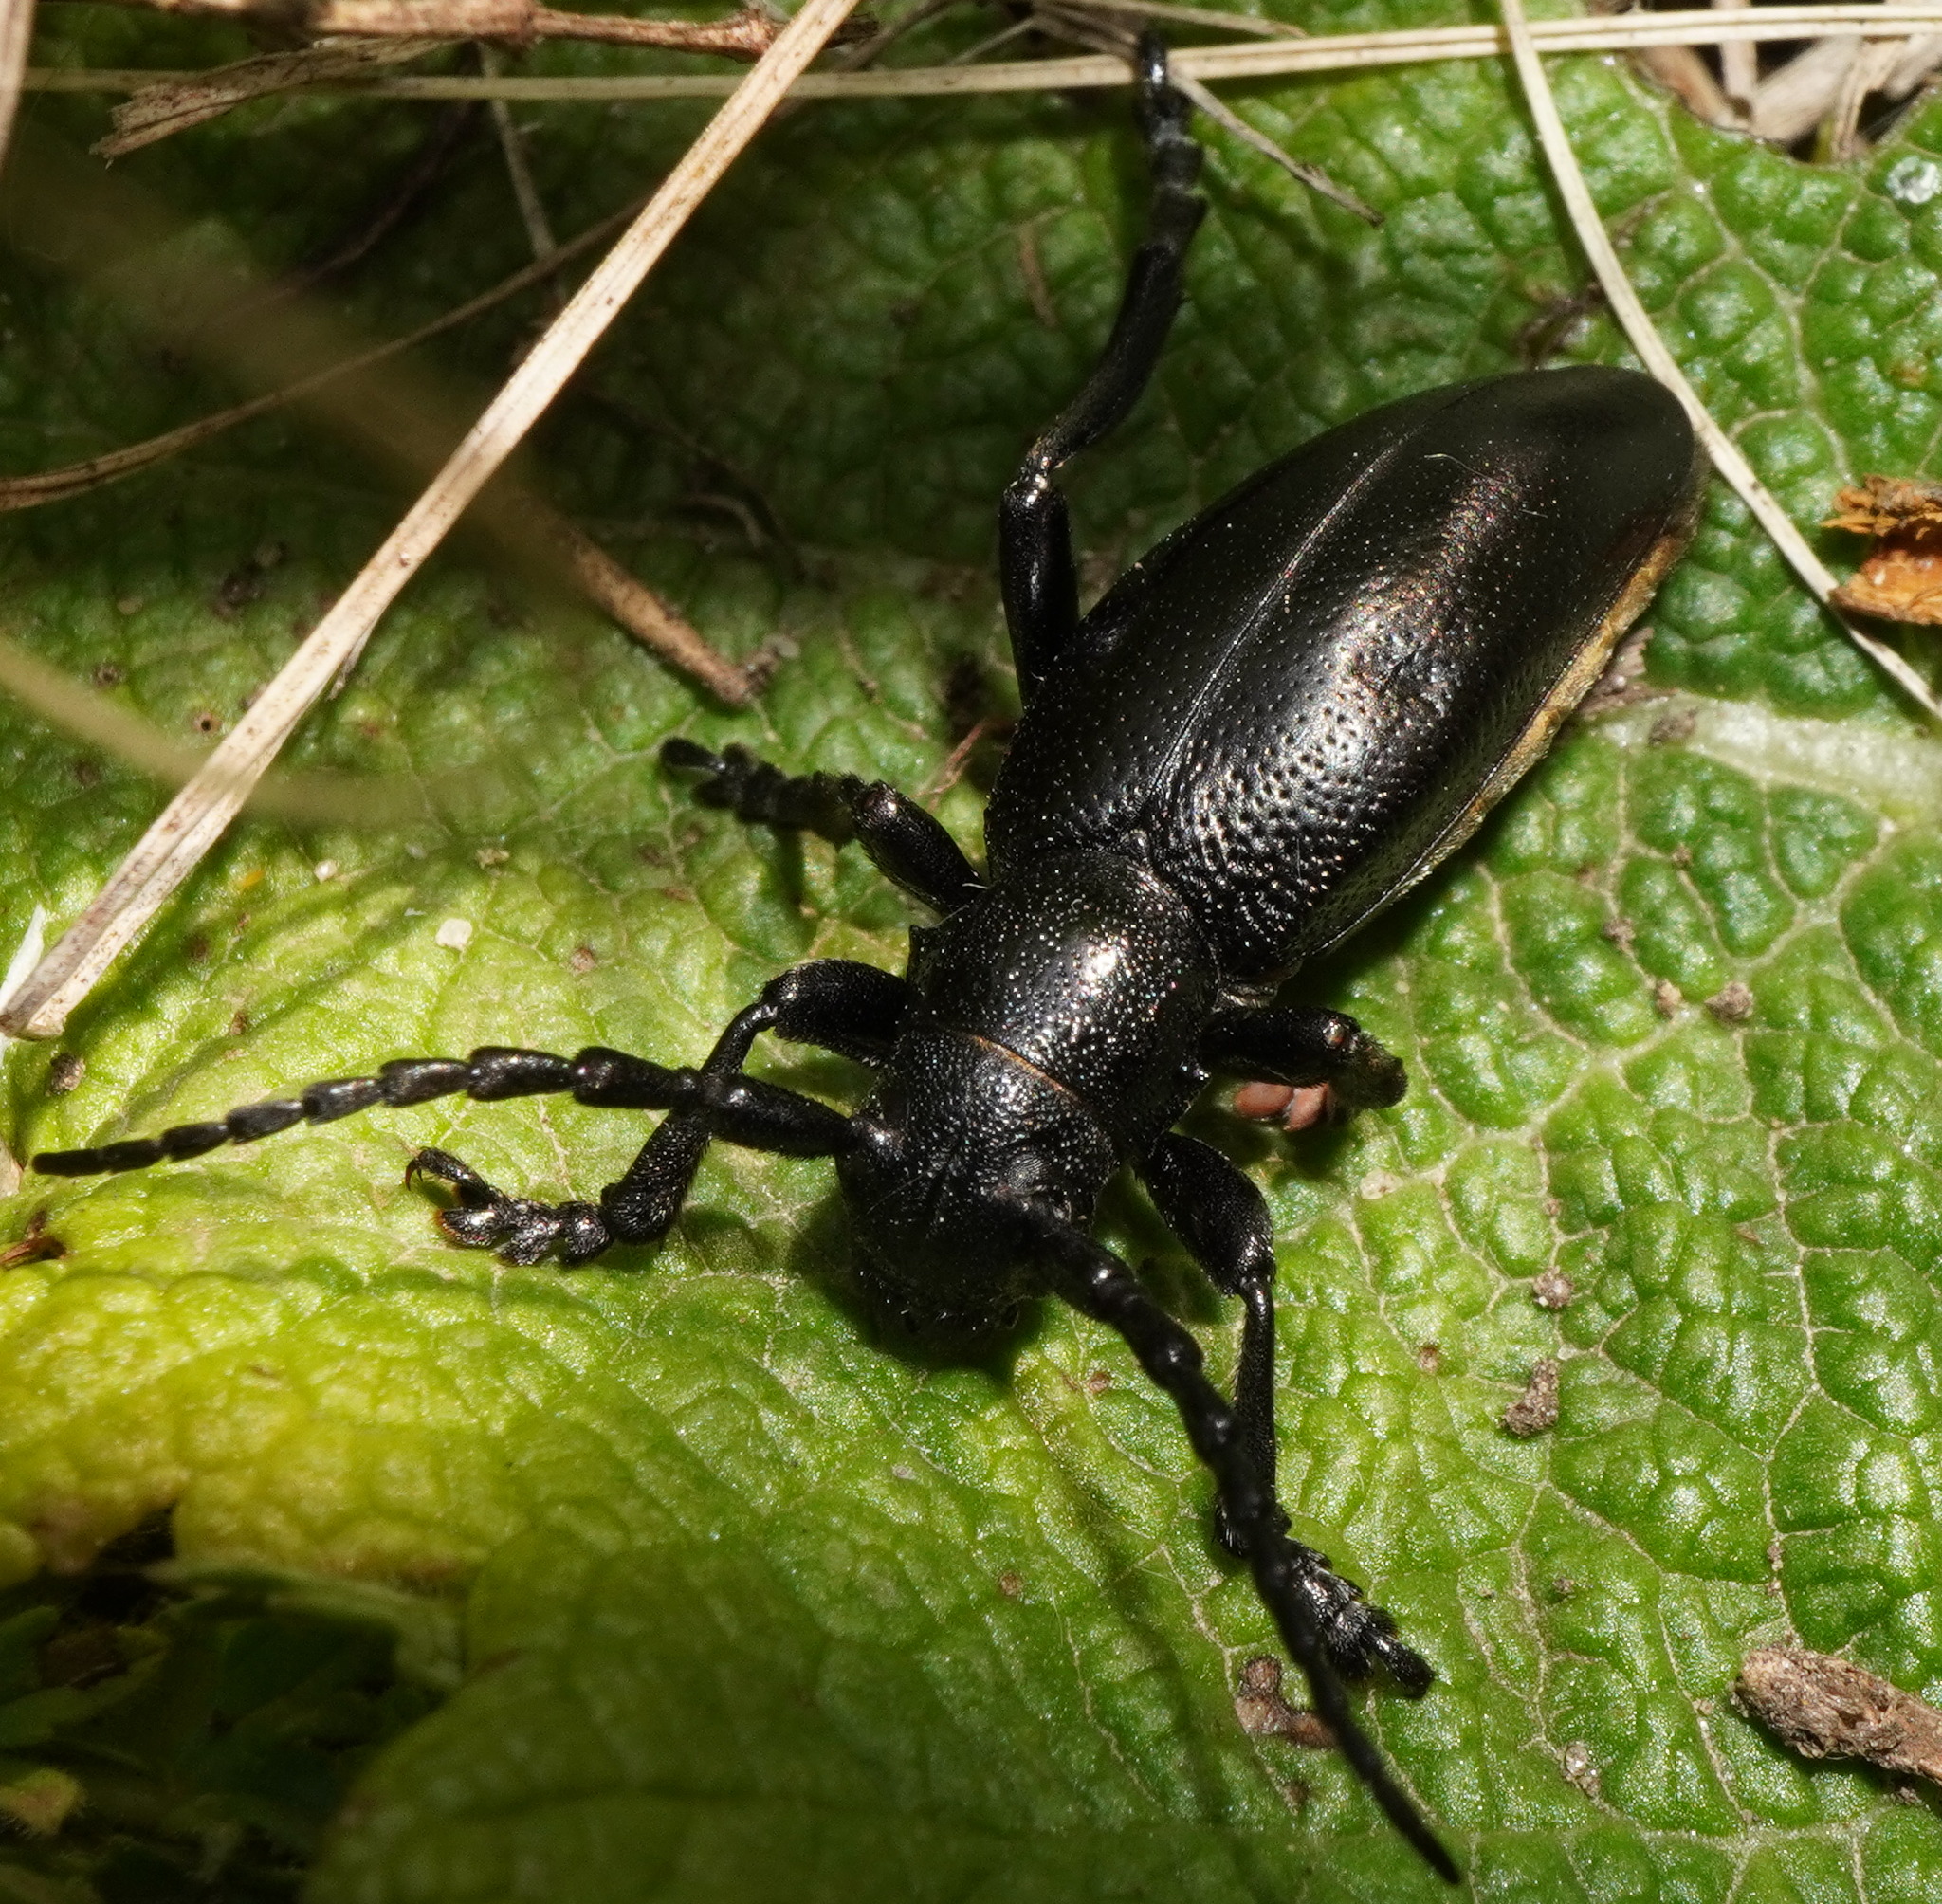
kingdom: Animalia
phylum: Arthropoda
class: Insecta
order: Coleoptera
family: Cerambycidae
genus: Dorcadion
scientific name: Dorcadion aethiops
